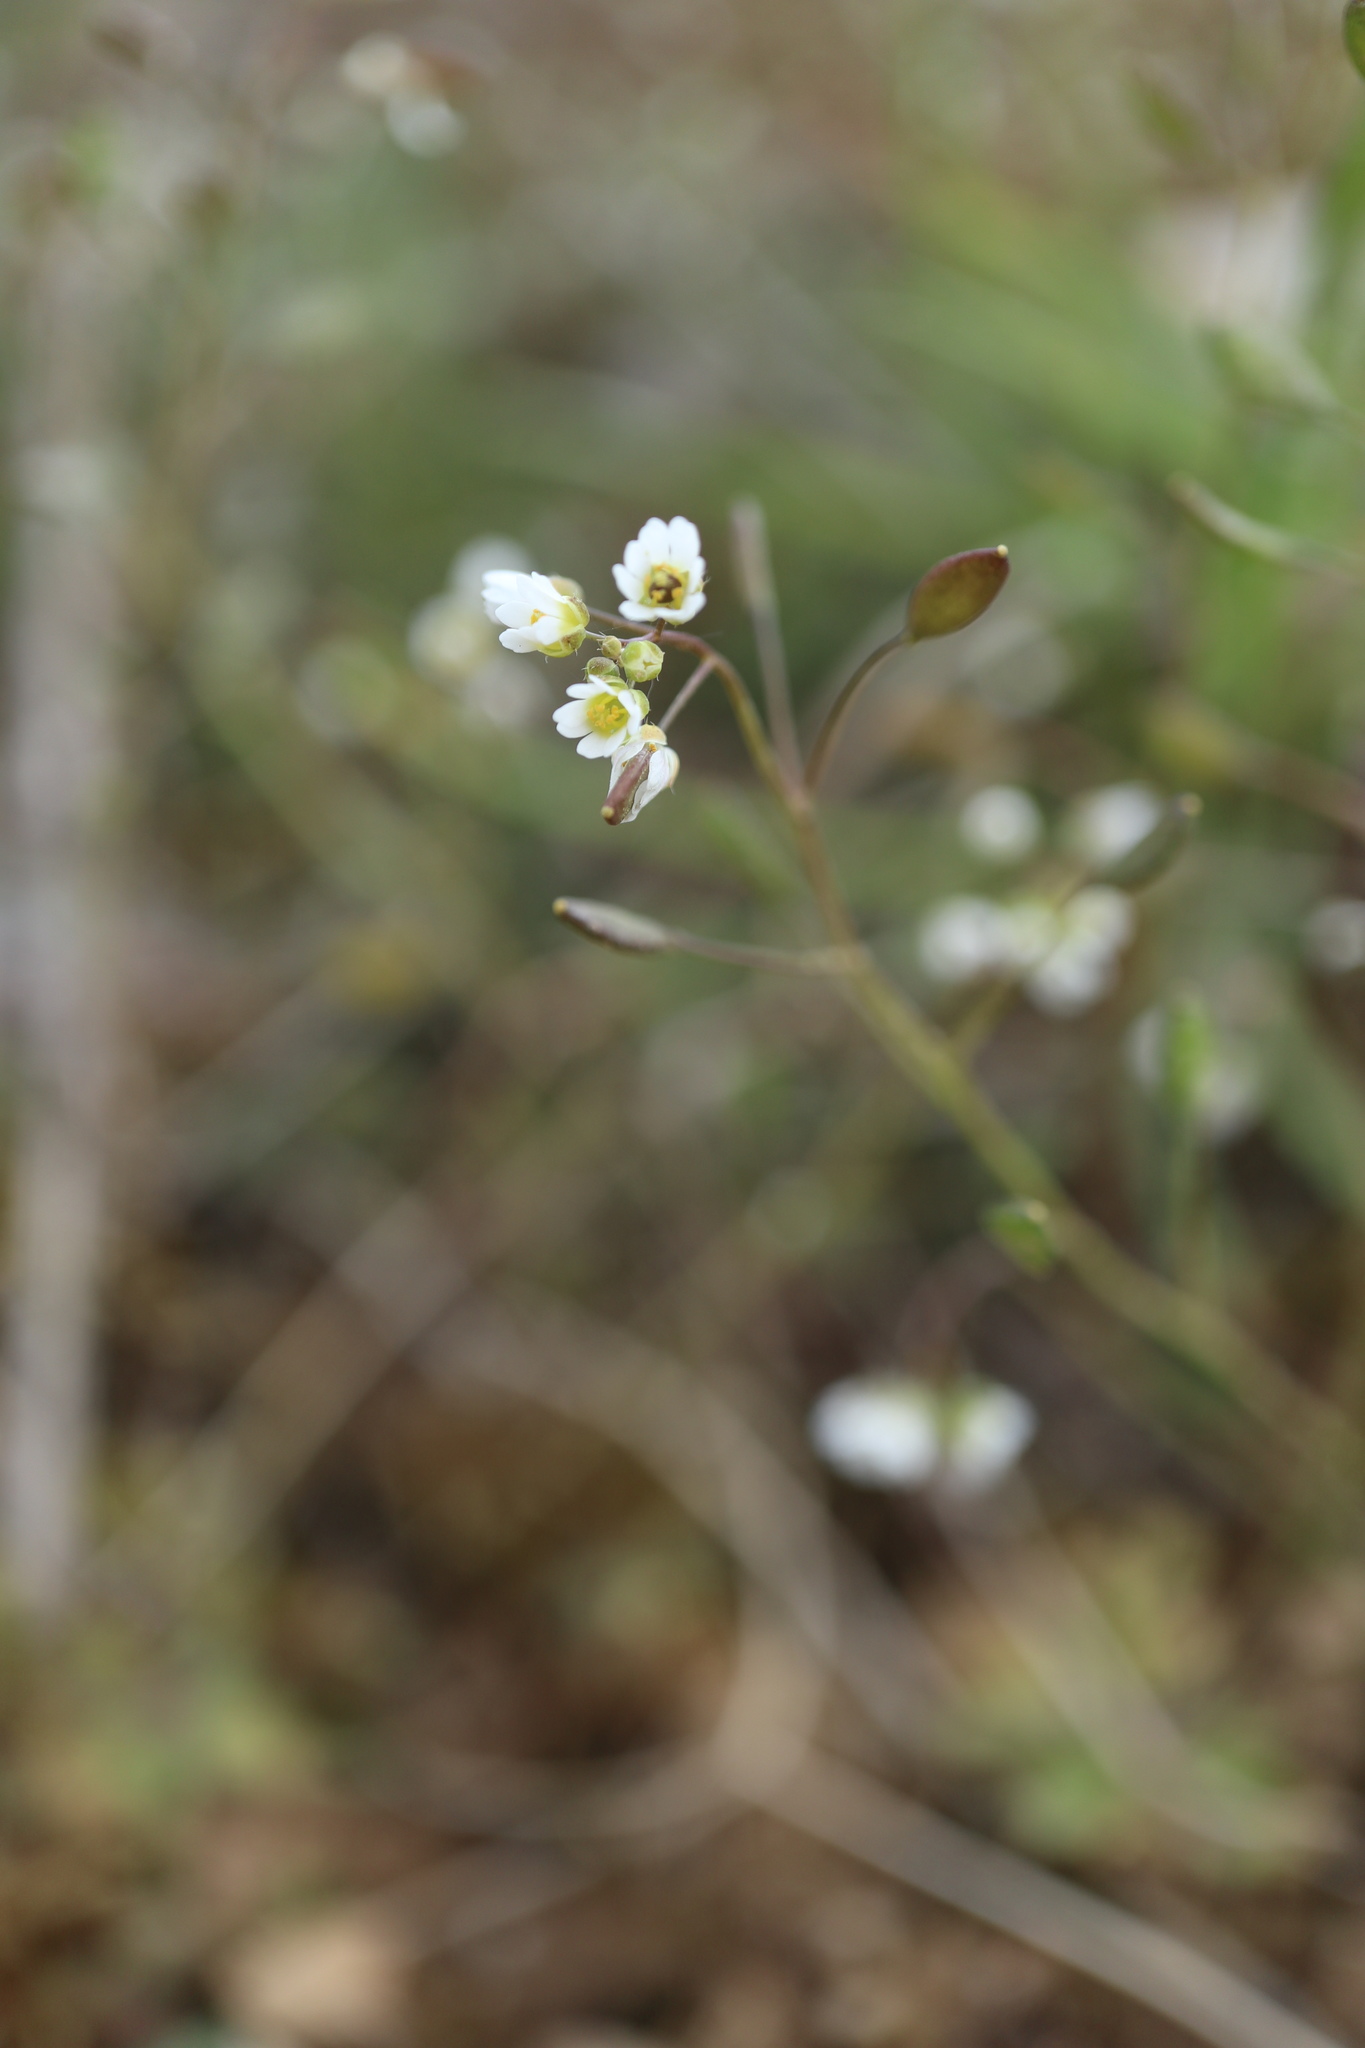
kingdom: Plantae
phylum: Tracheophyta
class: Magnoliopsida
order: Brassicales
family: Brassicaceae
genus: Draba
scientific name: Draba verna
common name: Spring draba
